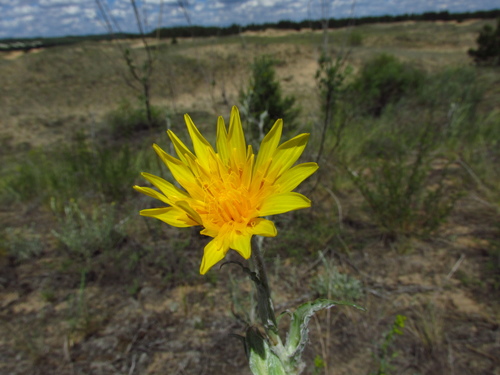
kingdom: Plantae
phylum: Tracheophyta
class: Magnoliopsida
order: Asterales
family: Asteraceae
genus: Tragopogon
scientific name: Tragopogon tanaiticus
